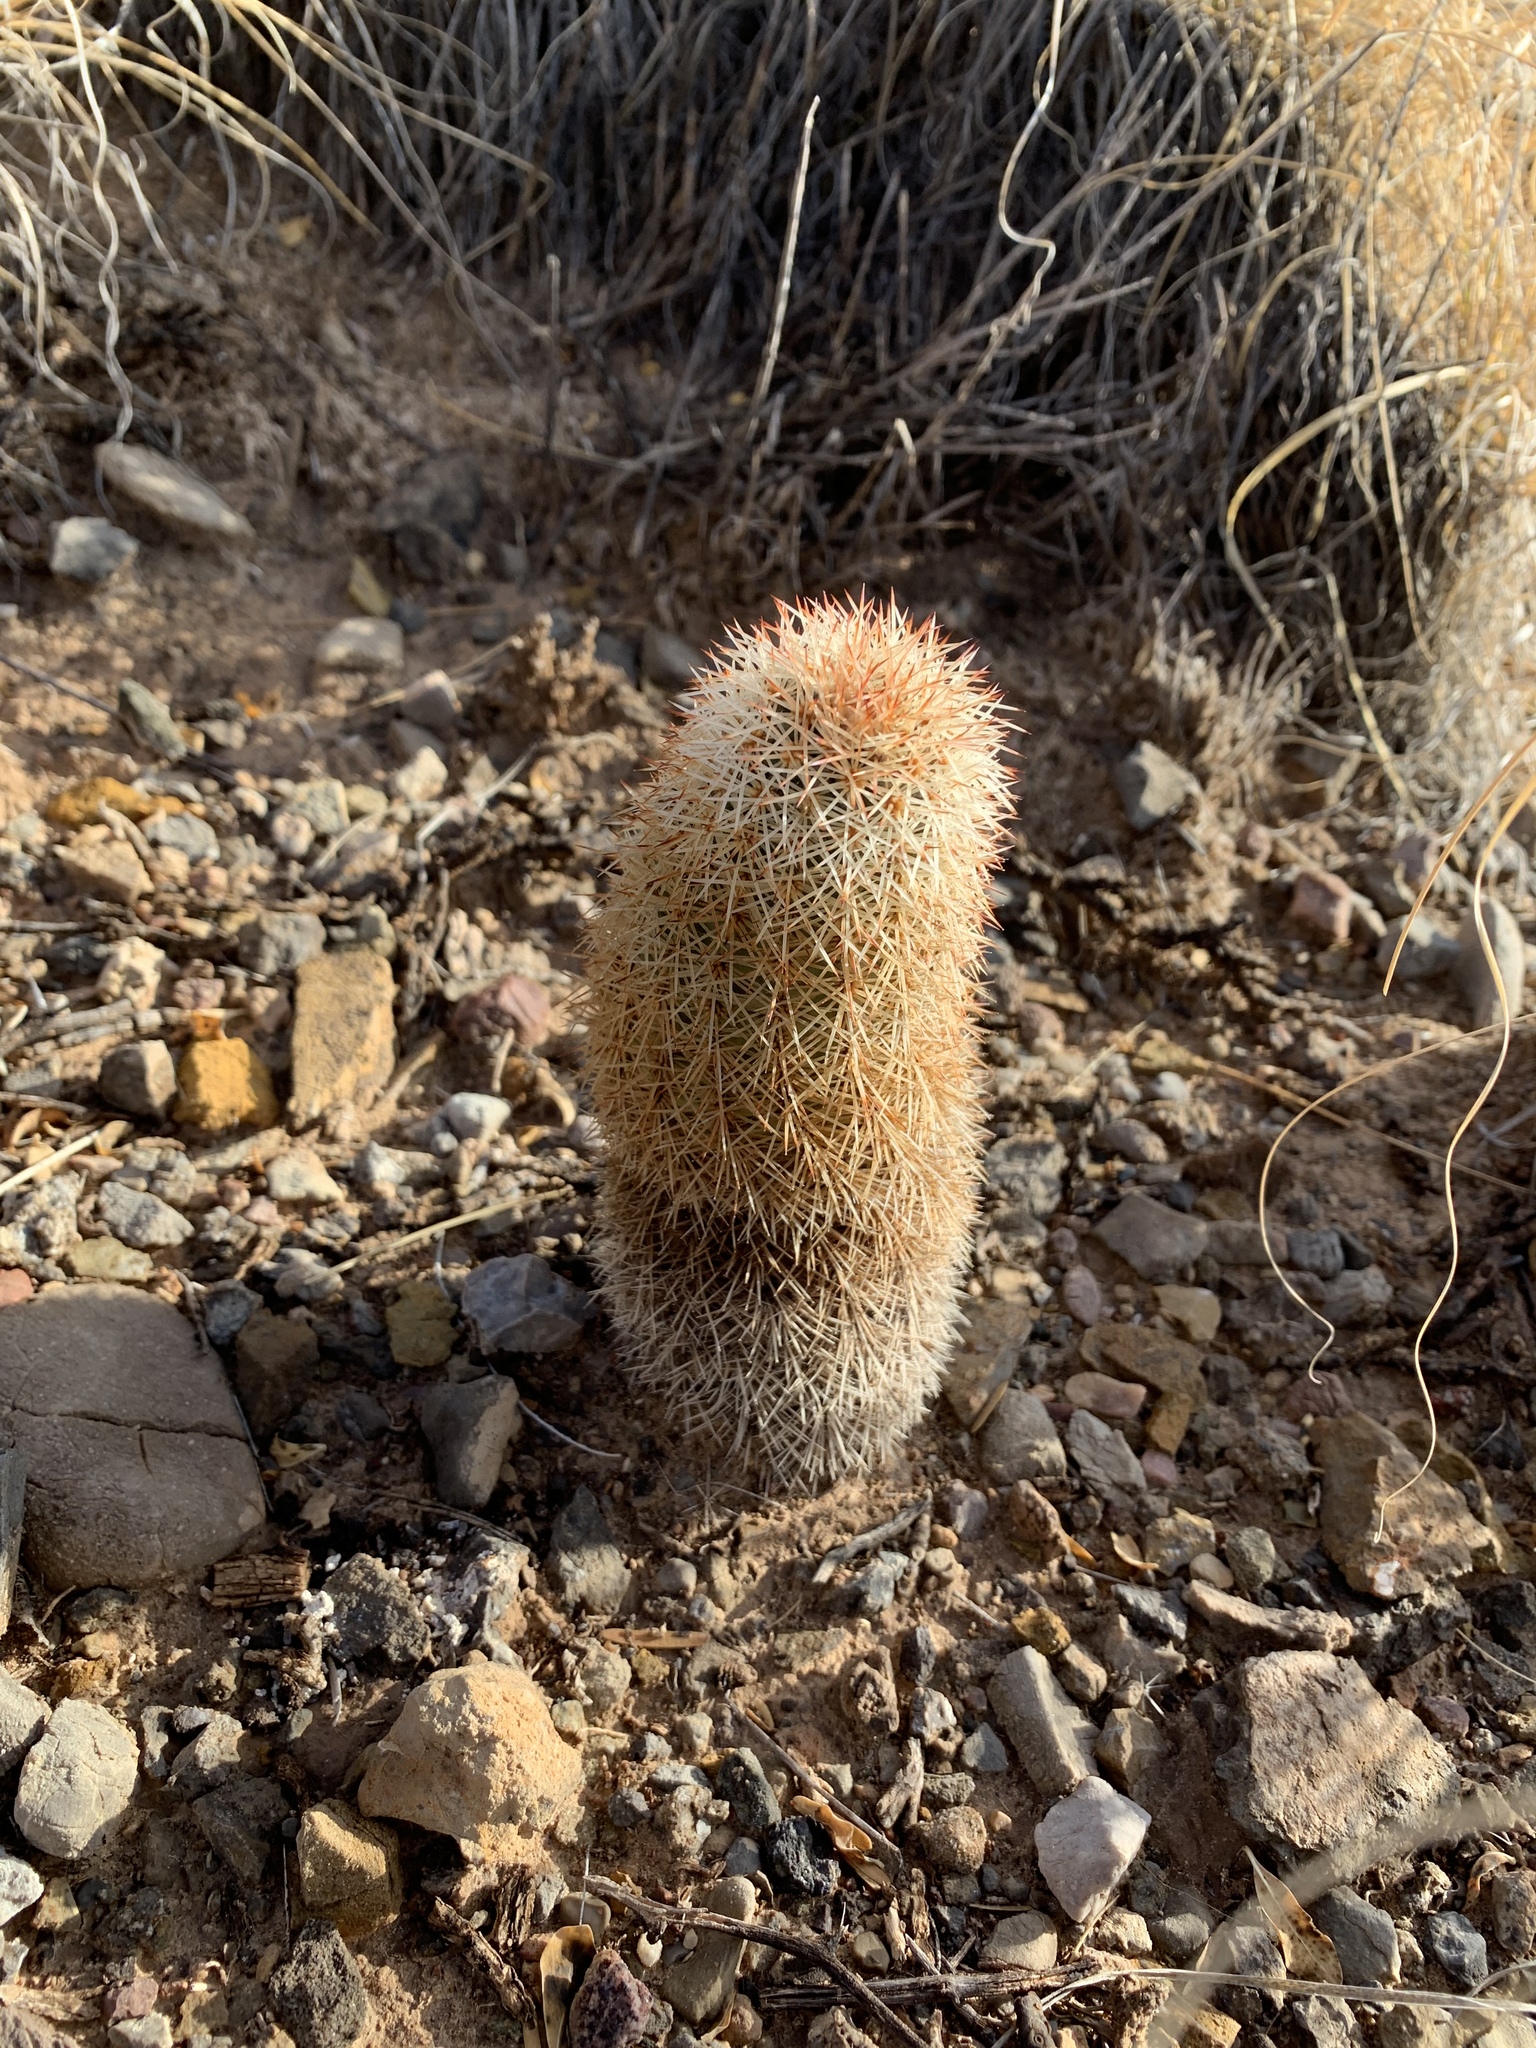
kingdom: Plantae
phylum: Tracheophyta
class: Magnoliopsida
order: Caryophyllales
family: Cactaceae
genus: Echinocereus
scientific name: Echinocereus dasyacanthus
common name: Spiny hedgehog cactus
